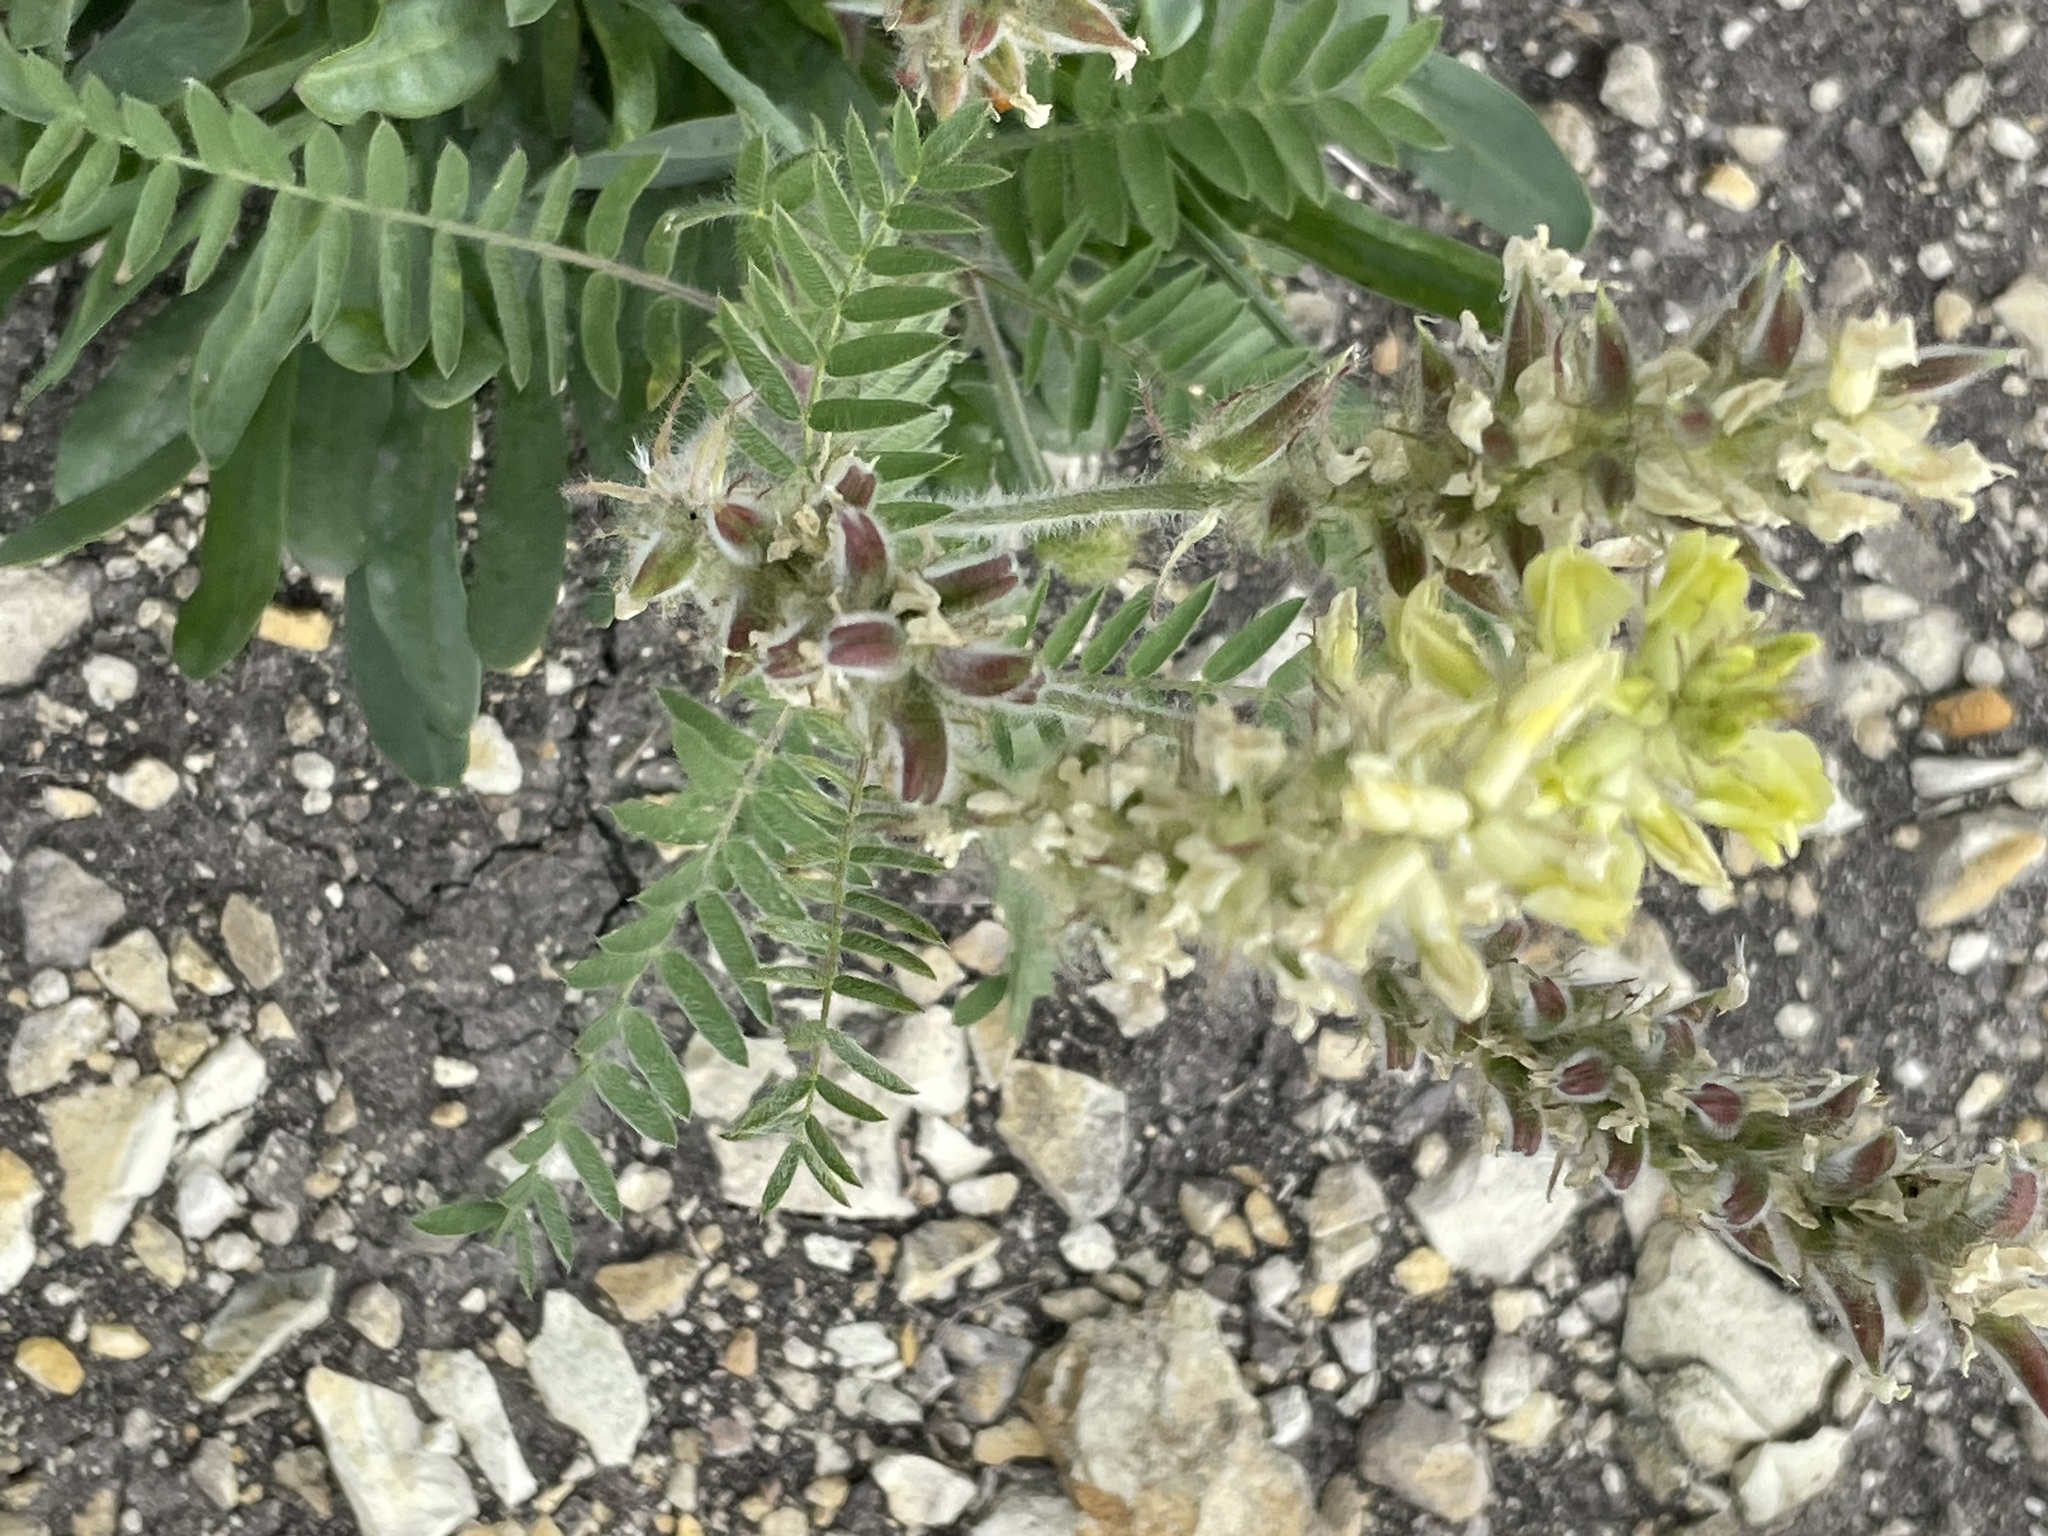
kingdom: Plantae
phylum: Tracheophyta
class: Magnoliopsida
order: Fabales
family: Fabaceae
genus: Oxytropis
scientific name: Oxytropis pilosa
